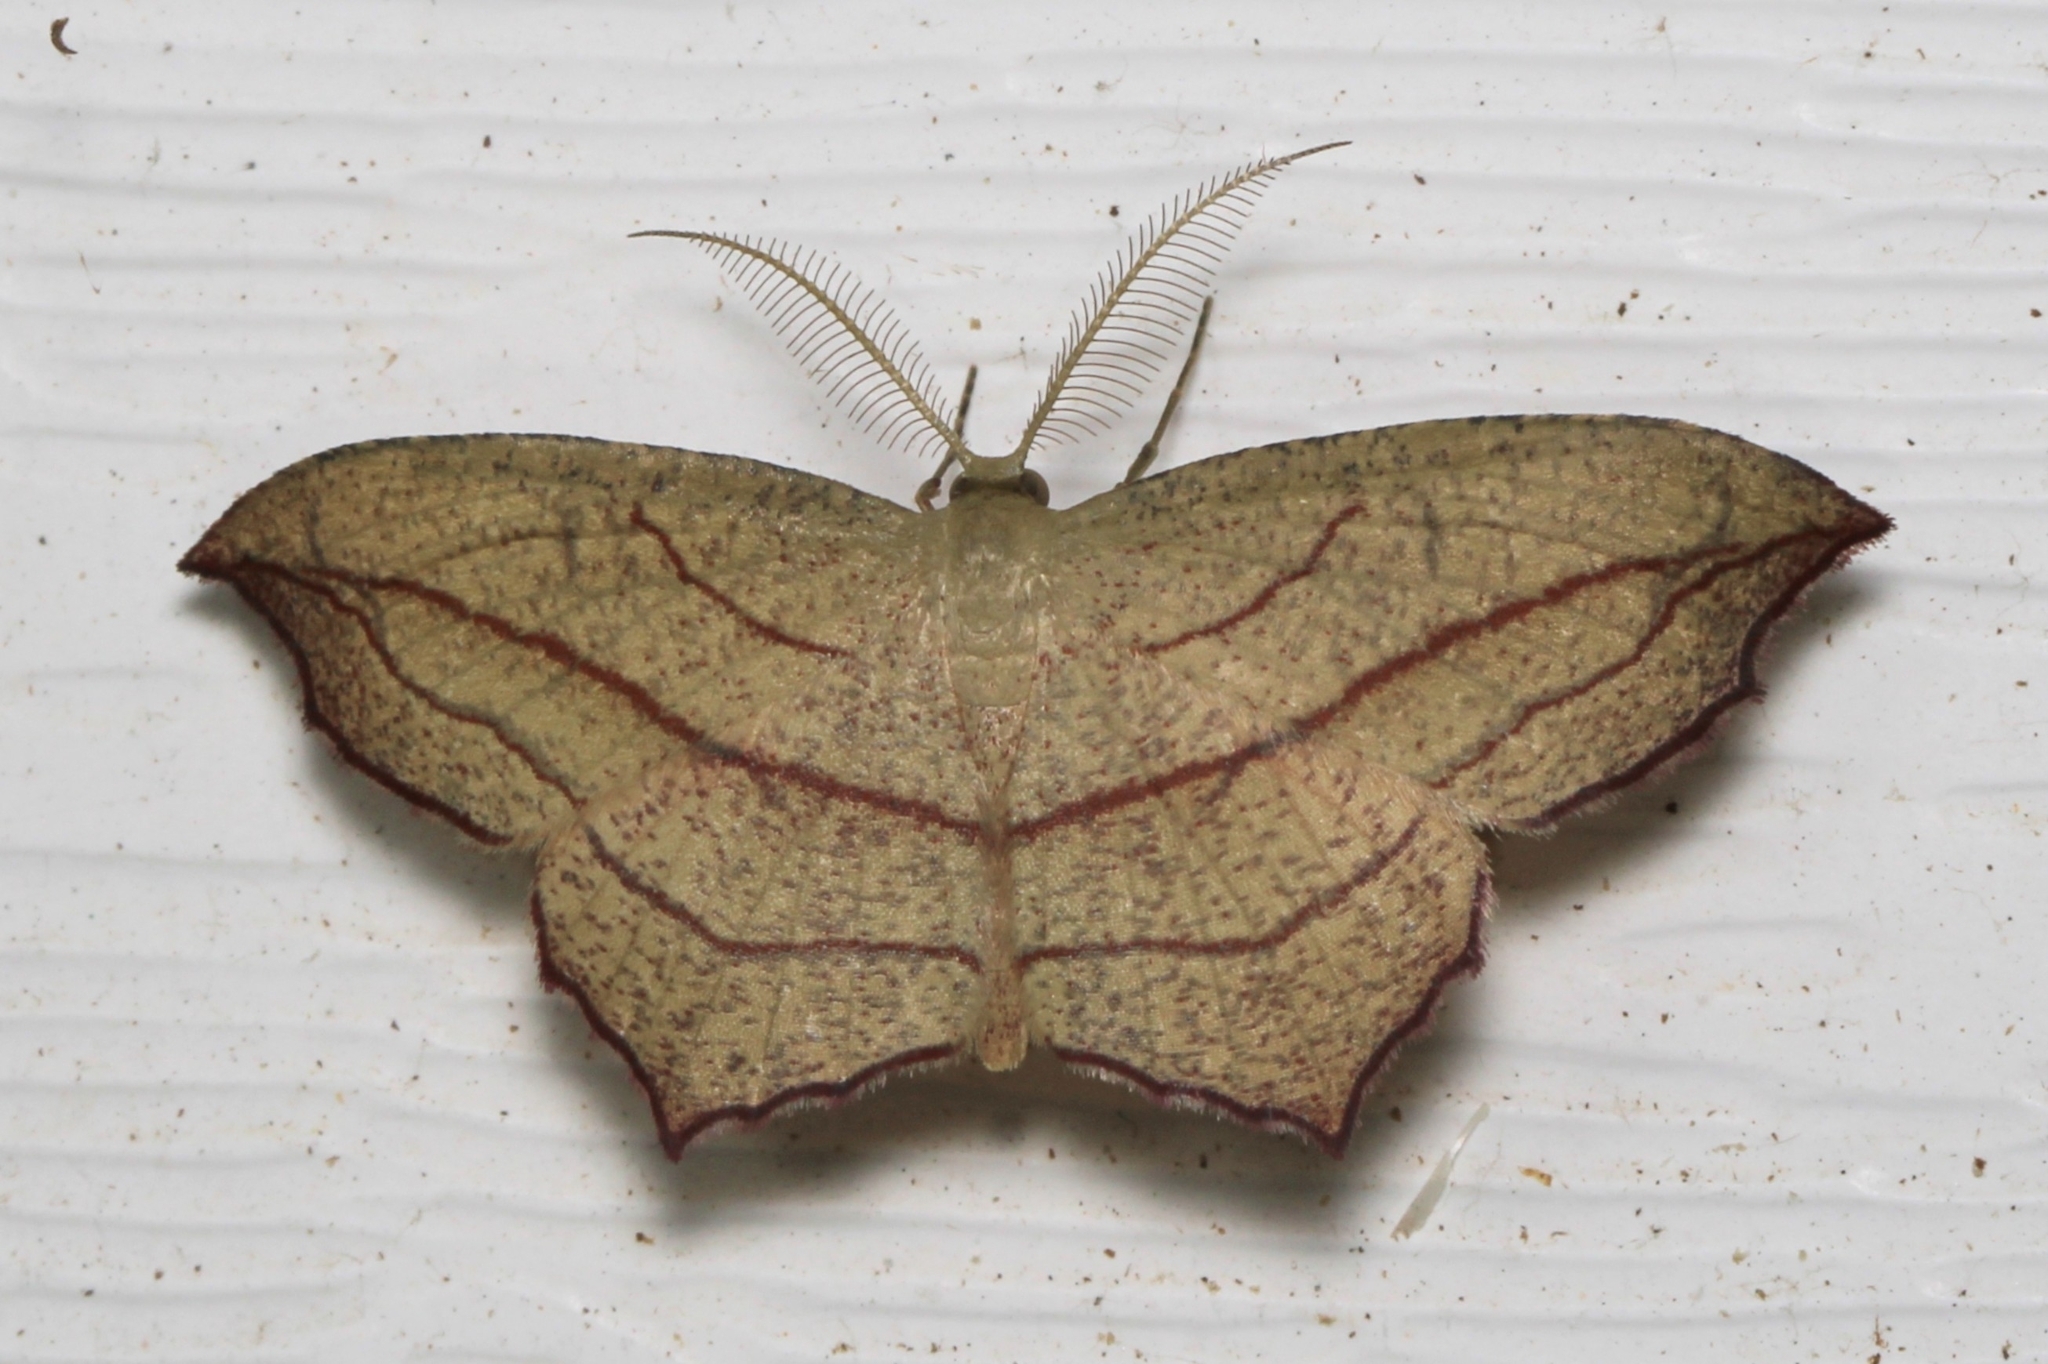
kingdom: Animalia
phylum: Arthropoda
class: Insecta
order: Lepidoptera
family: Geometridae
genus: Timandra
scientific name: Timandra amaturaria
